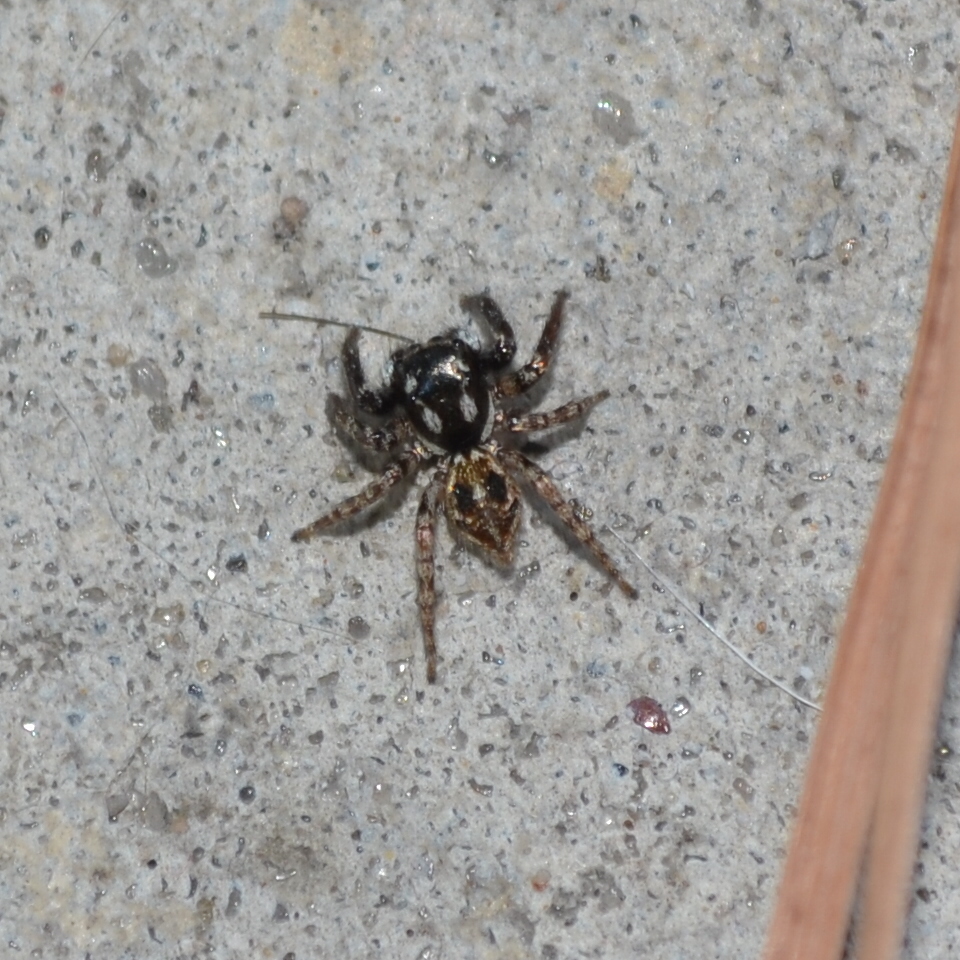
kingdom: Animalia
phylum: Arthropoda
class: Arachnida
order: Araneae
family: Salticidae
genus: Anasaitis
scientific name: Anasaitis canosa
